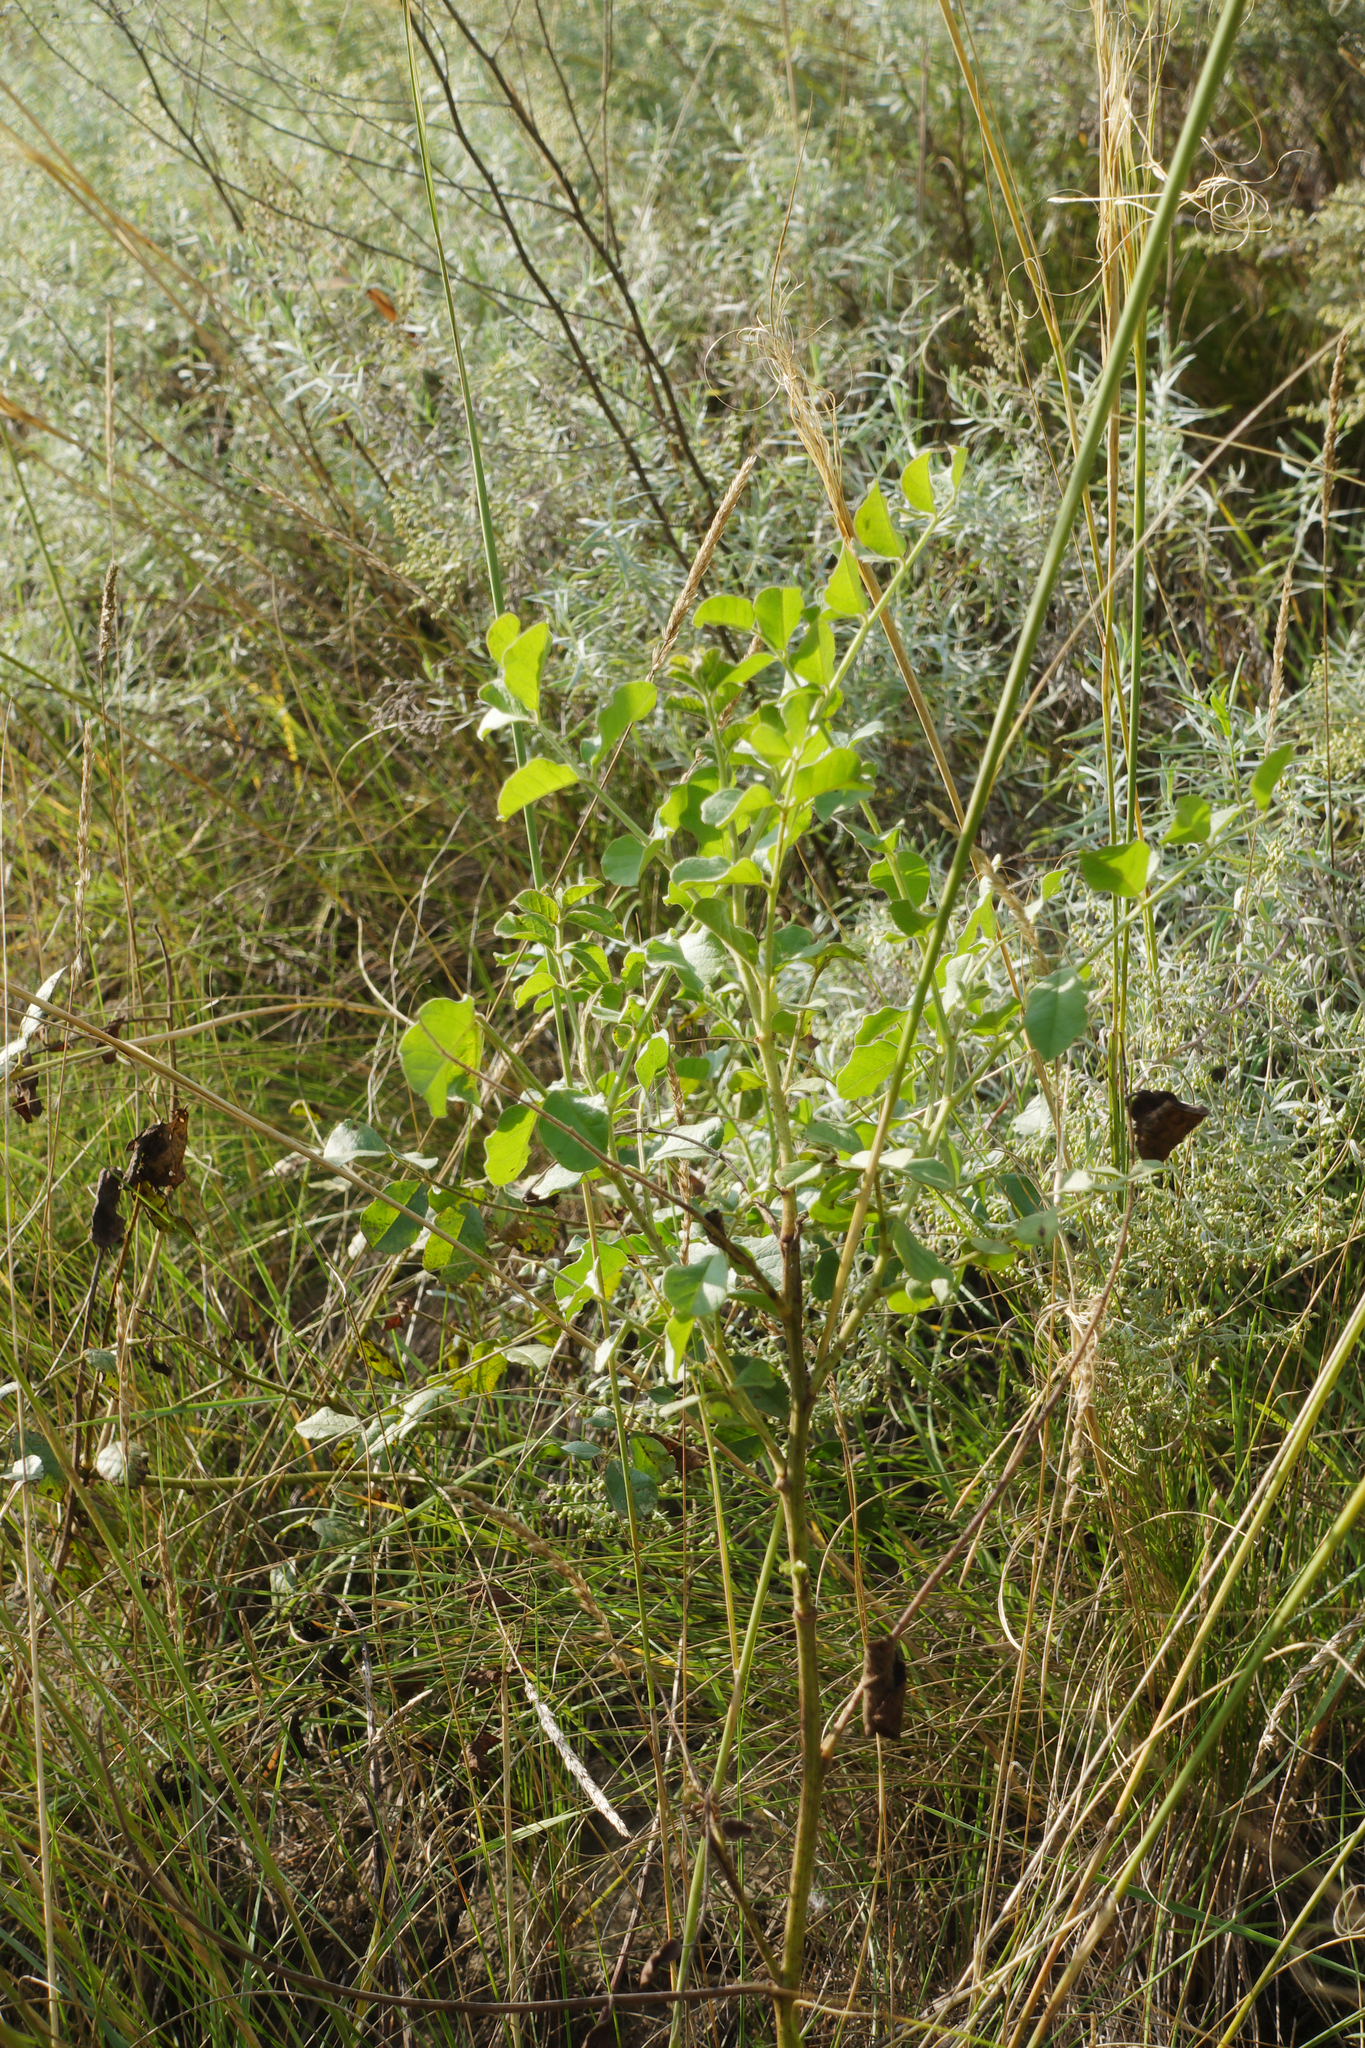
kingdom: Plantae
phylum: Tracheophyta
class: Magnoliopsida
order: Fabales
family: Fabaceae
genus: Glycyrrhiza
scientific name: Glycyrrhiza uralensis
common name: Chinese licorice
